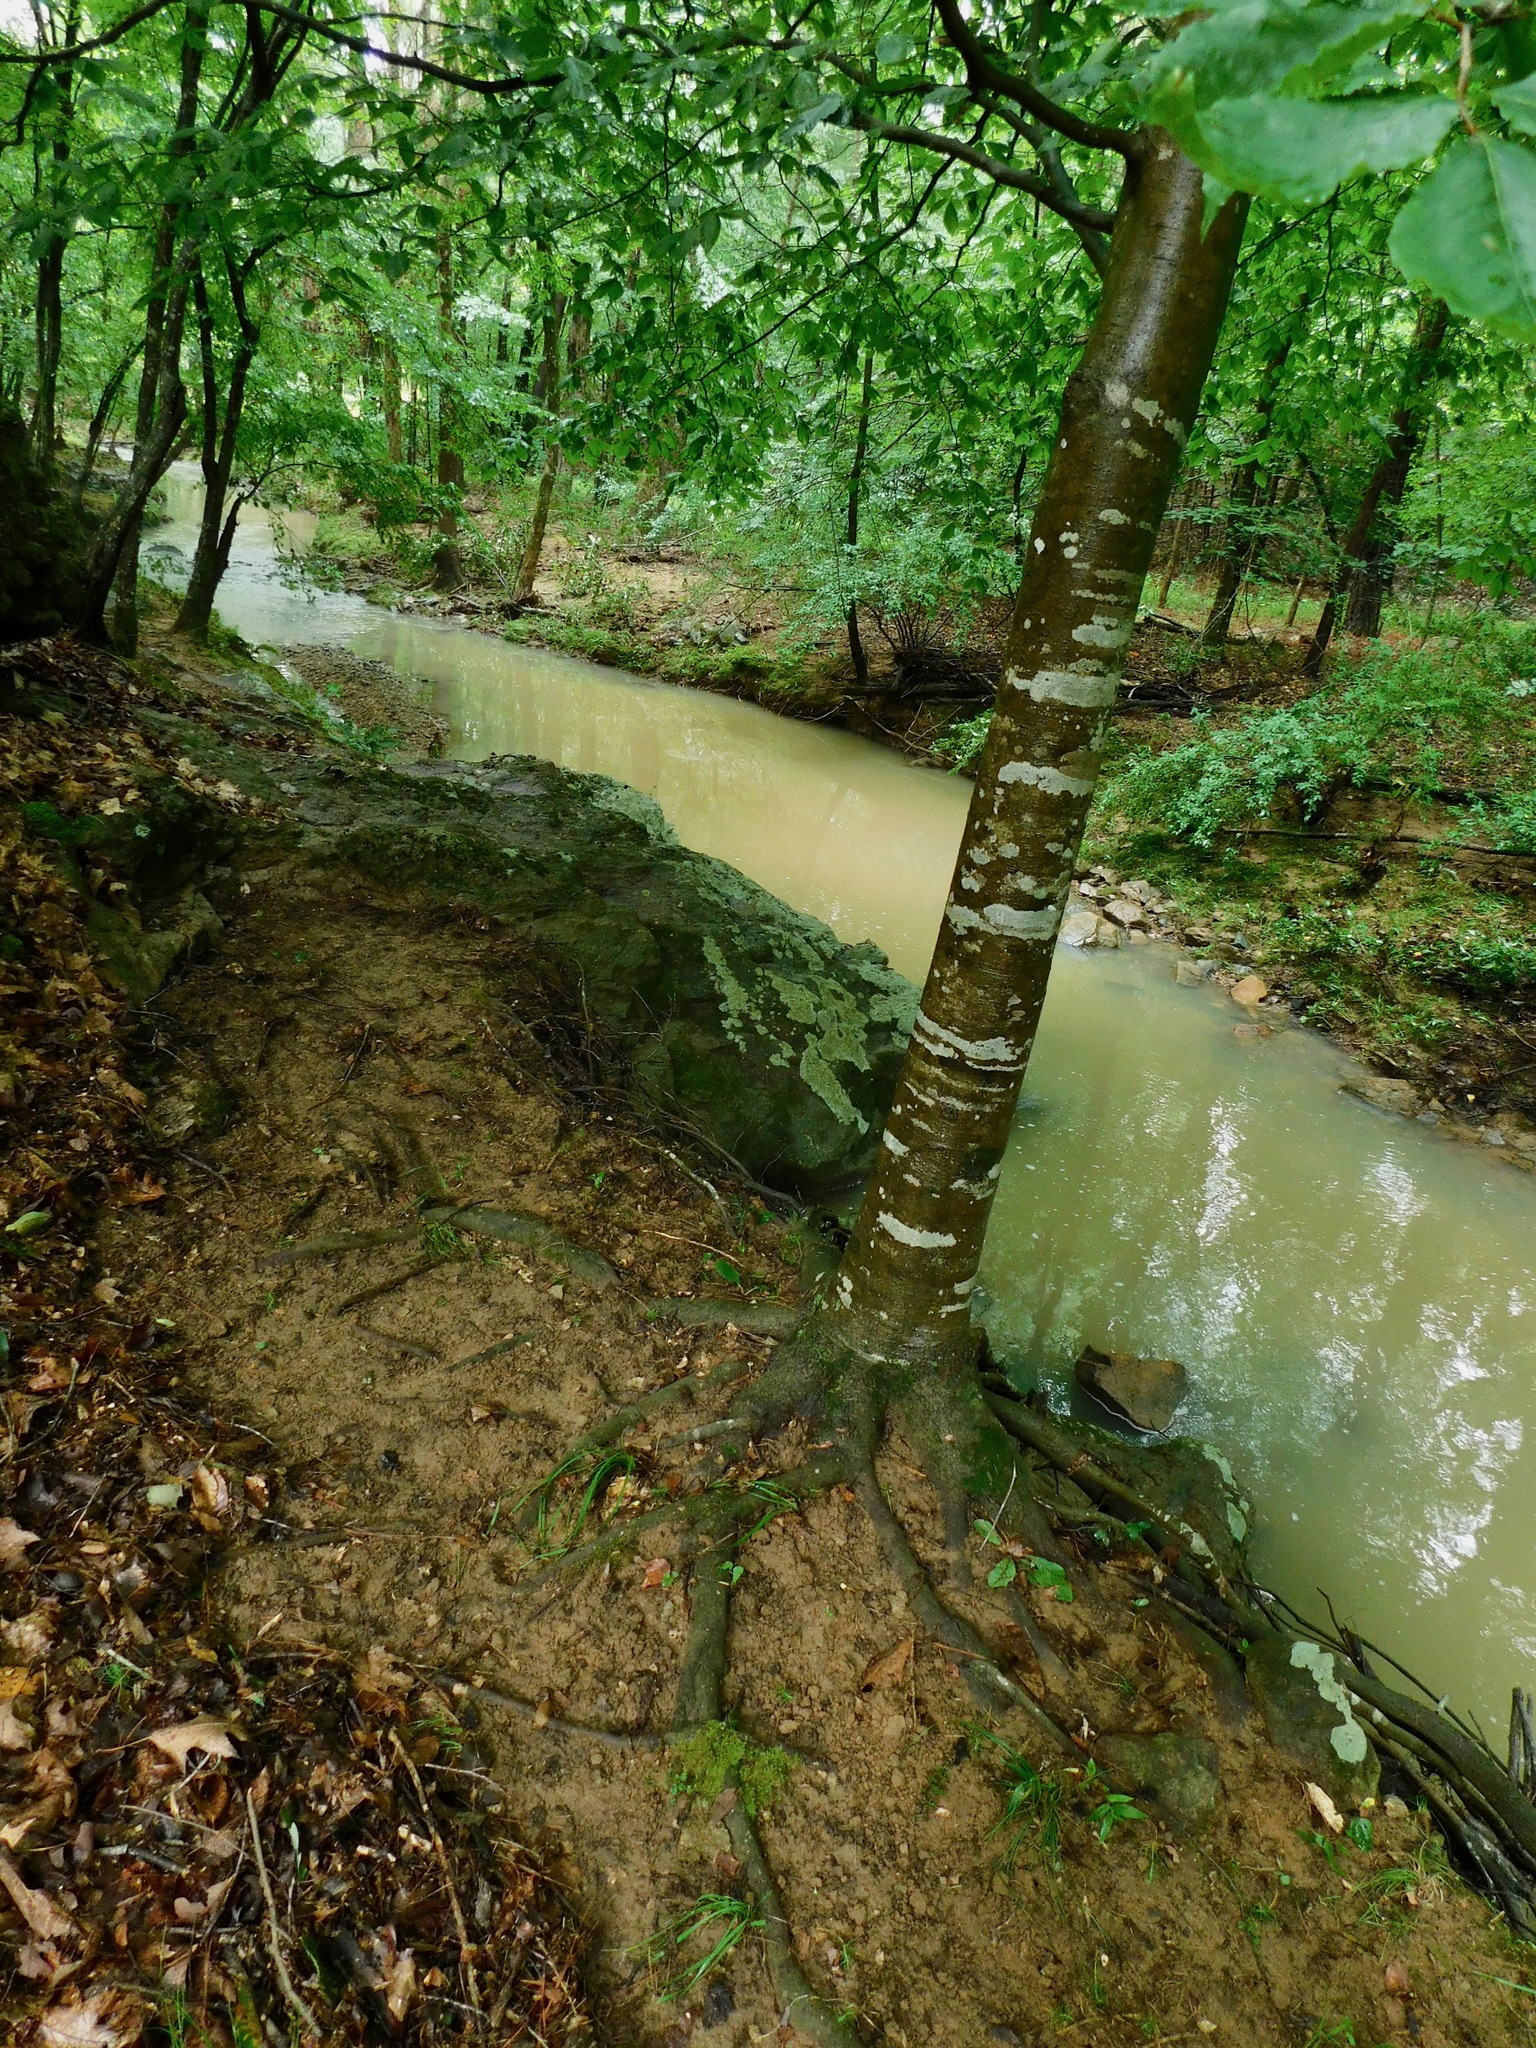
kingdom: Plantae
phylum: Tracheophyta
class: Magnoliopsida
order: Fagales
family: Fagaceae
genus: Fagus
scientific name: Fagus grandifolia
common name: American beech
